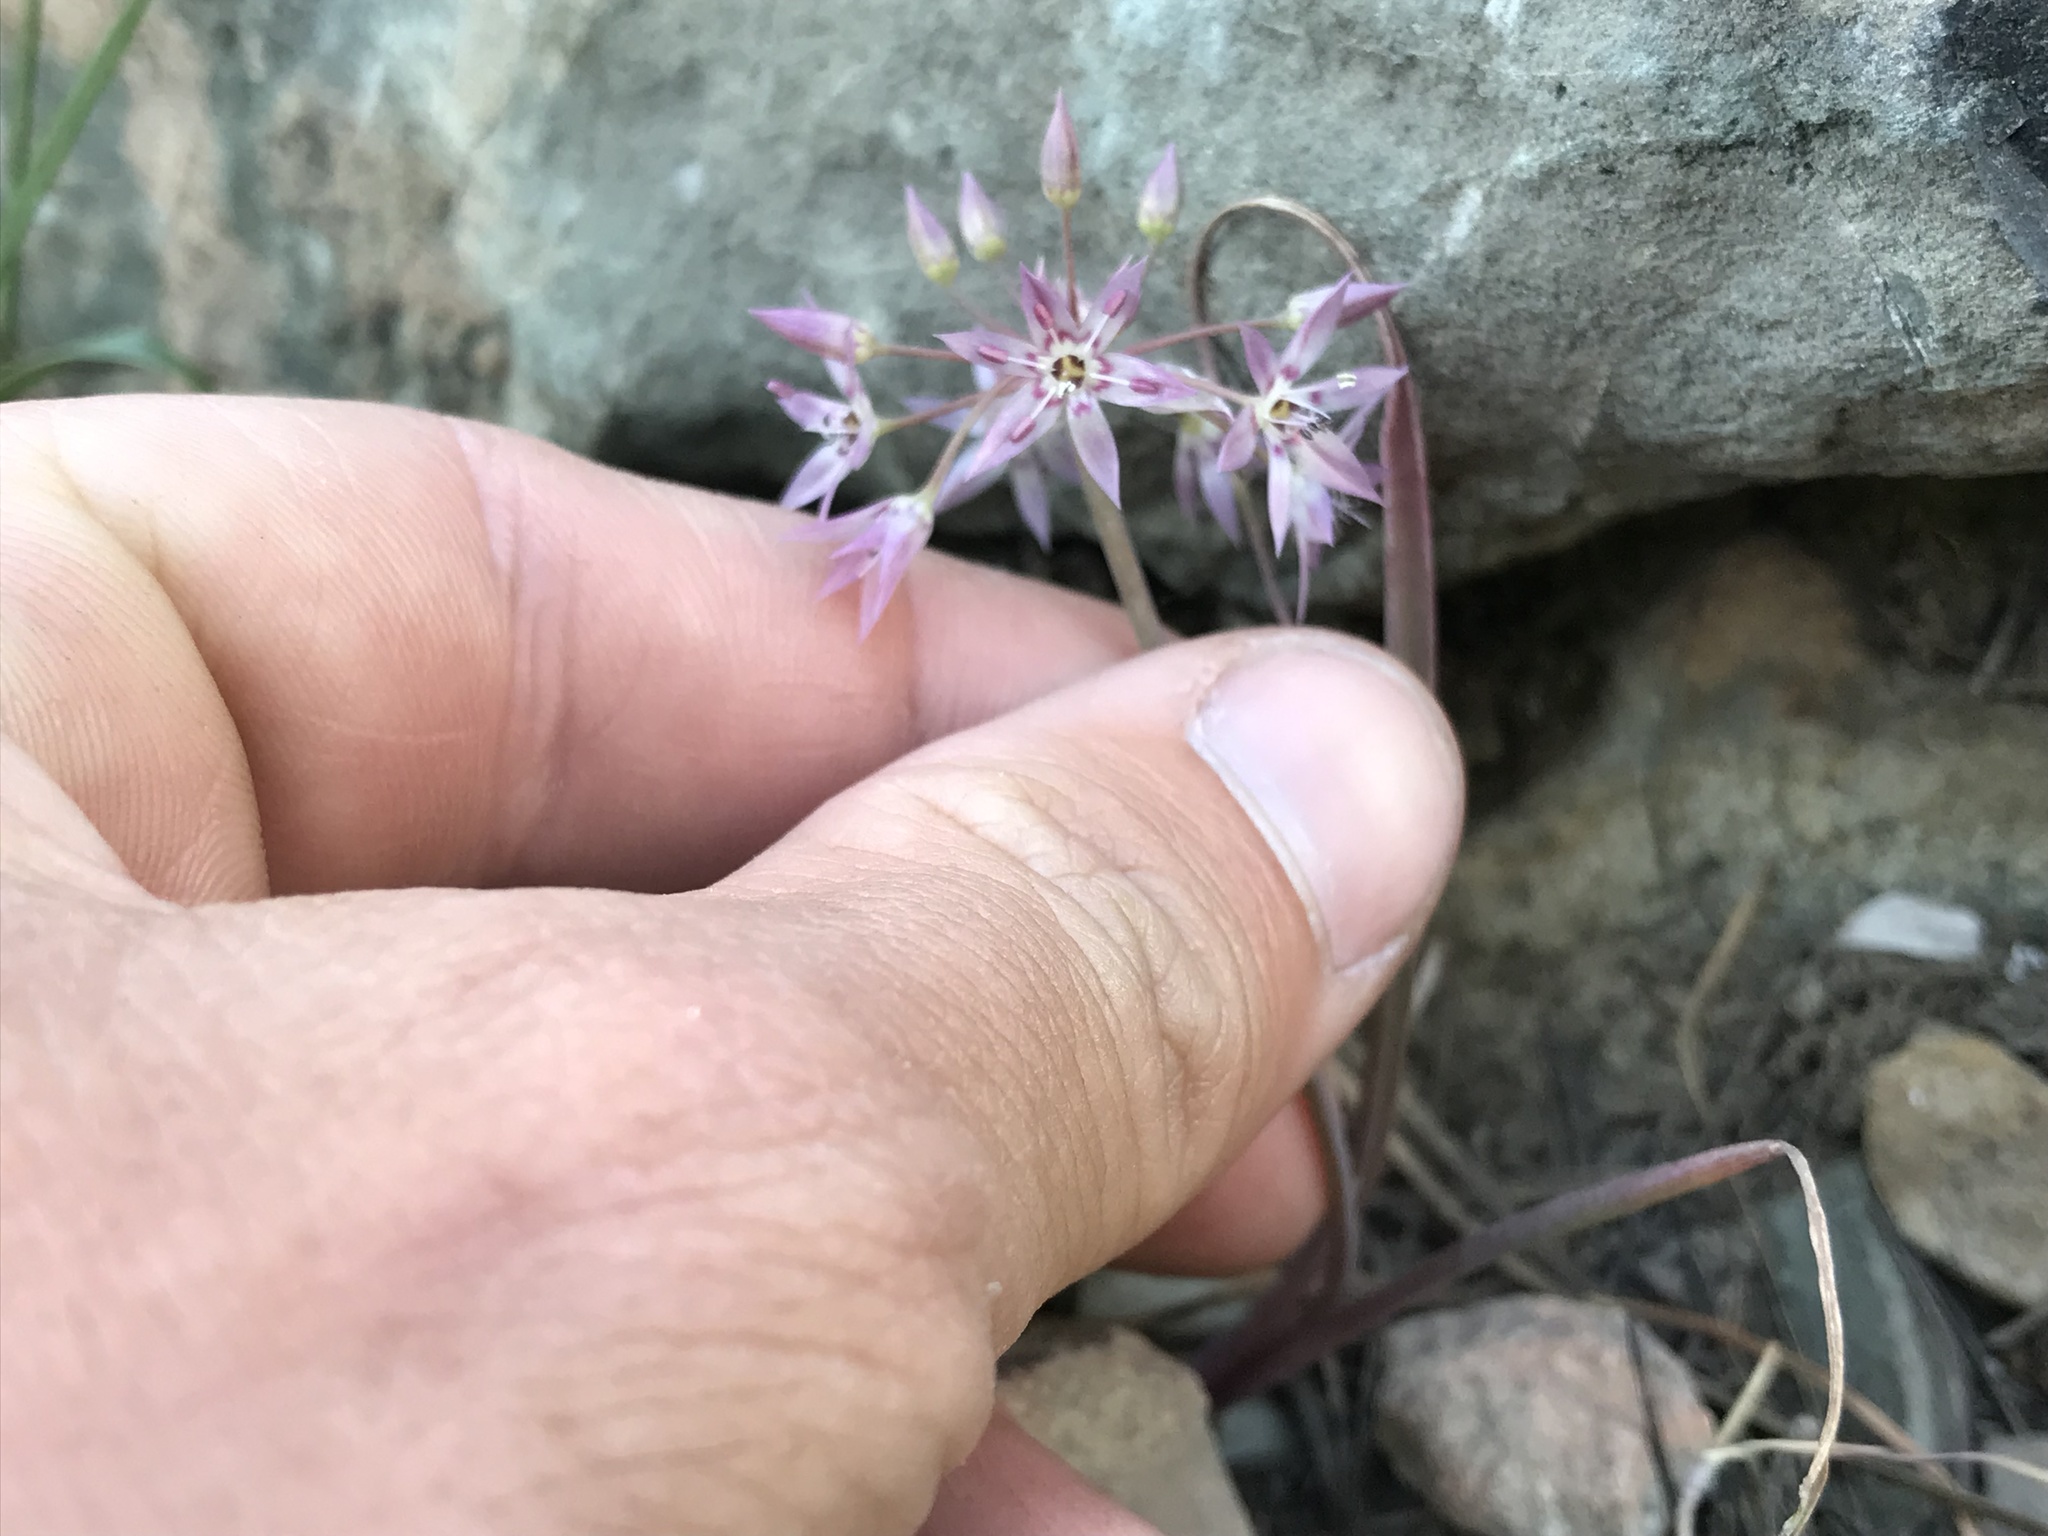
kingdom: Plantae
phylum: Tracheophyta
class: Liliopsida
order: Asparagales
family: Amaryllidaceae
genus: Allium
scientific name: Allium campanulatum
